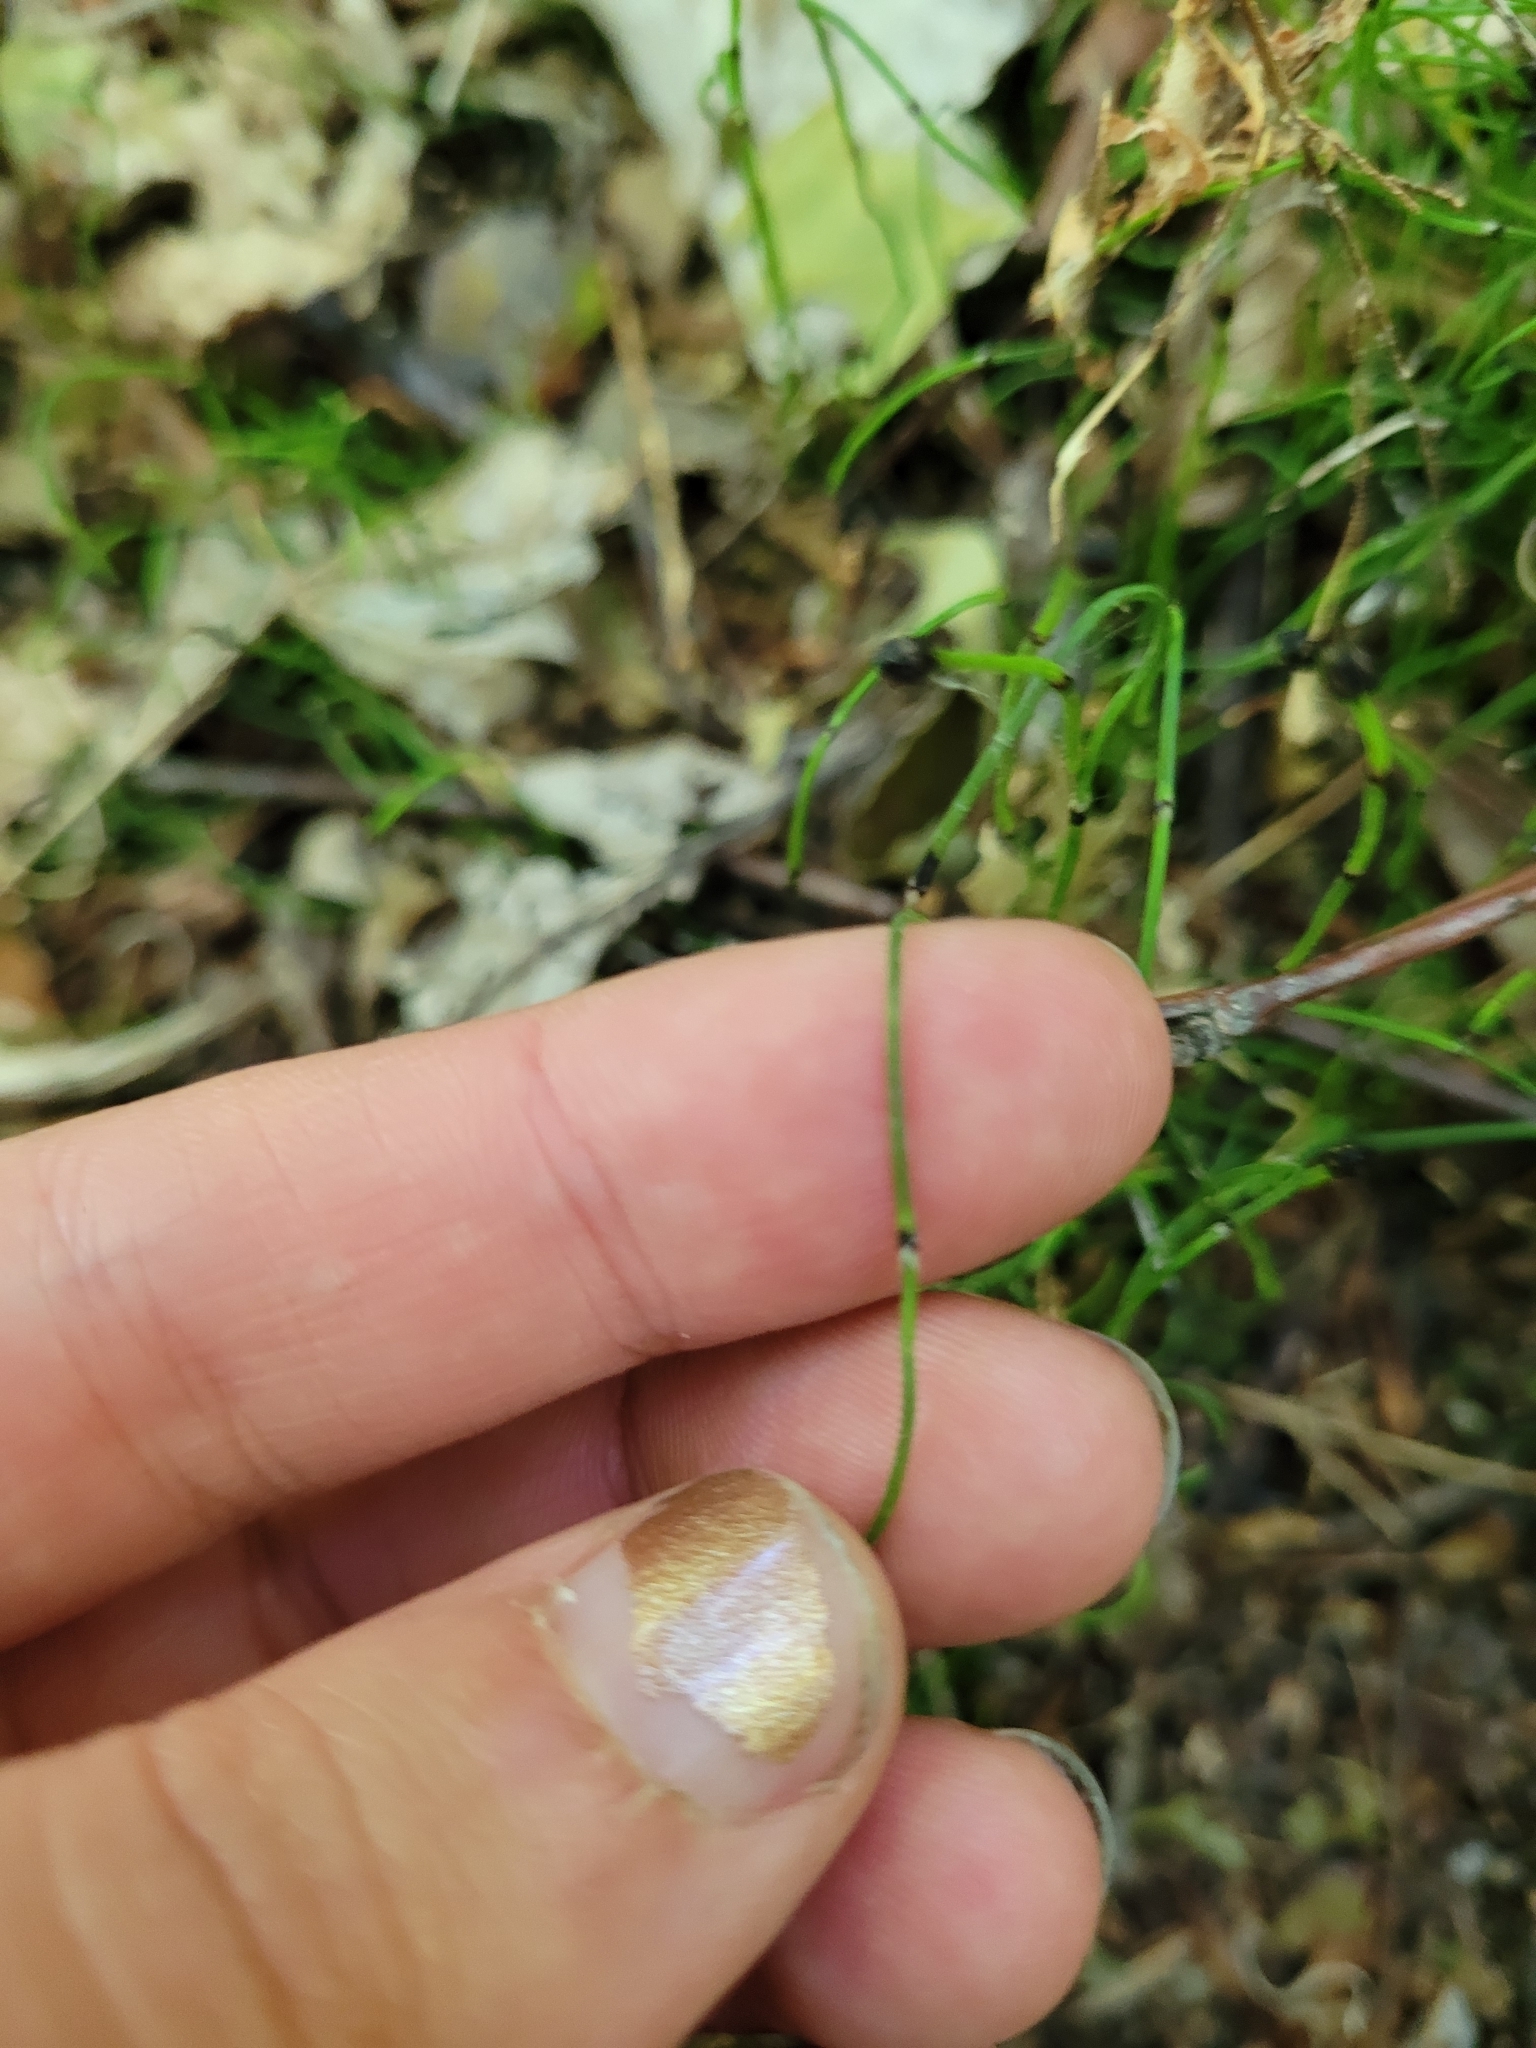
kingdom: Plantae
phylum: Tracheophyta
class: Polypodiopsida
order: Equisetales
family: Equisetaceae
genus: Equisetum
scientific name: Equisetum scirpoides
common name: Delicate horsetail
